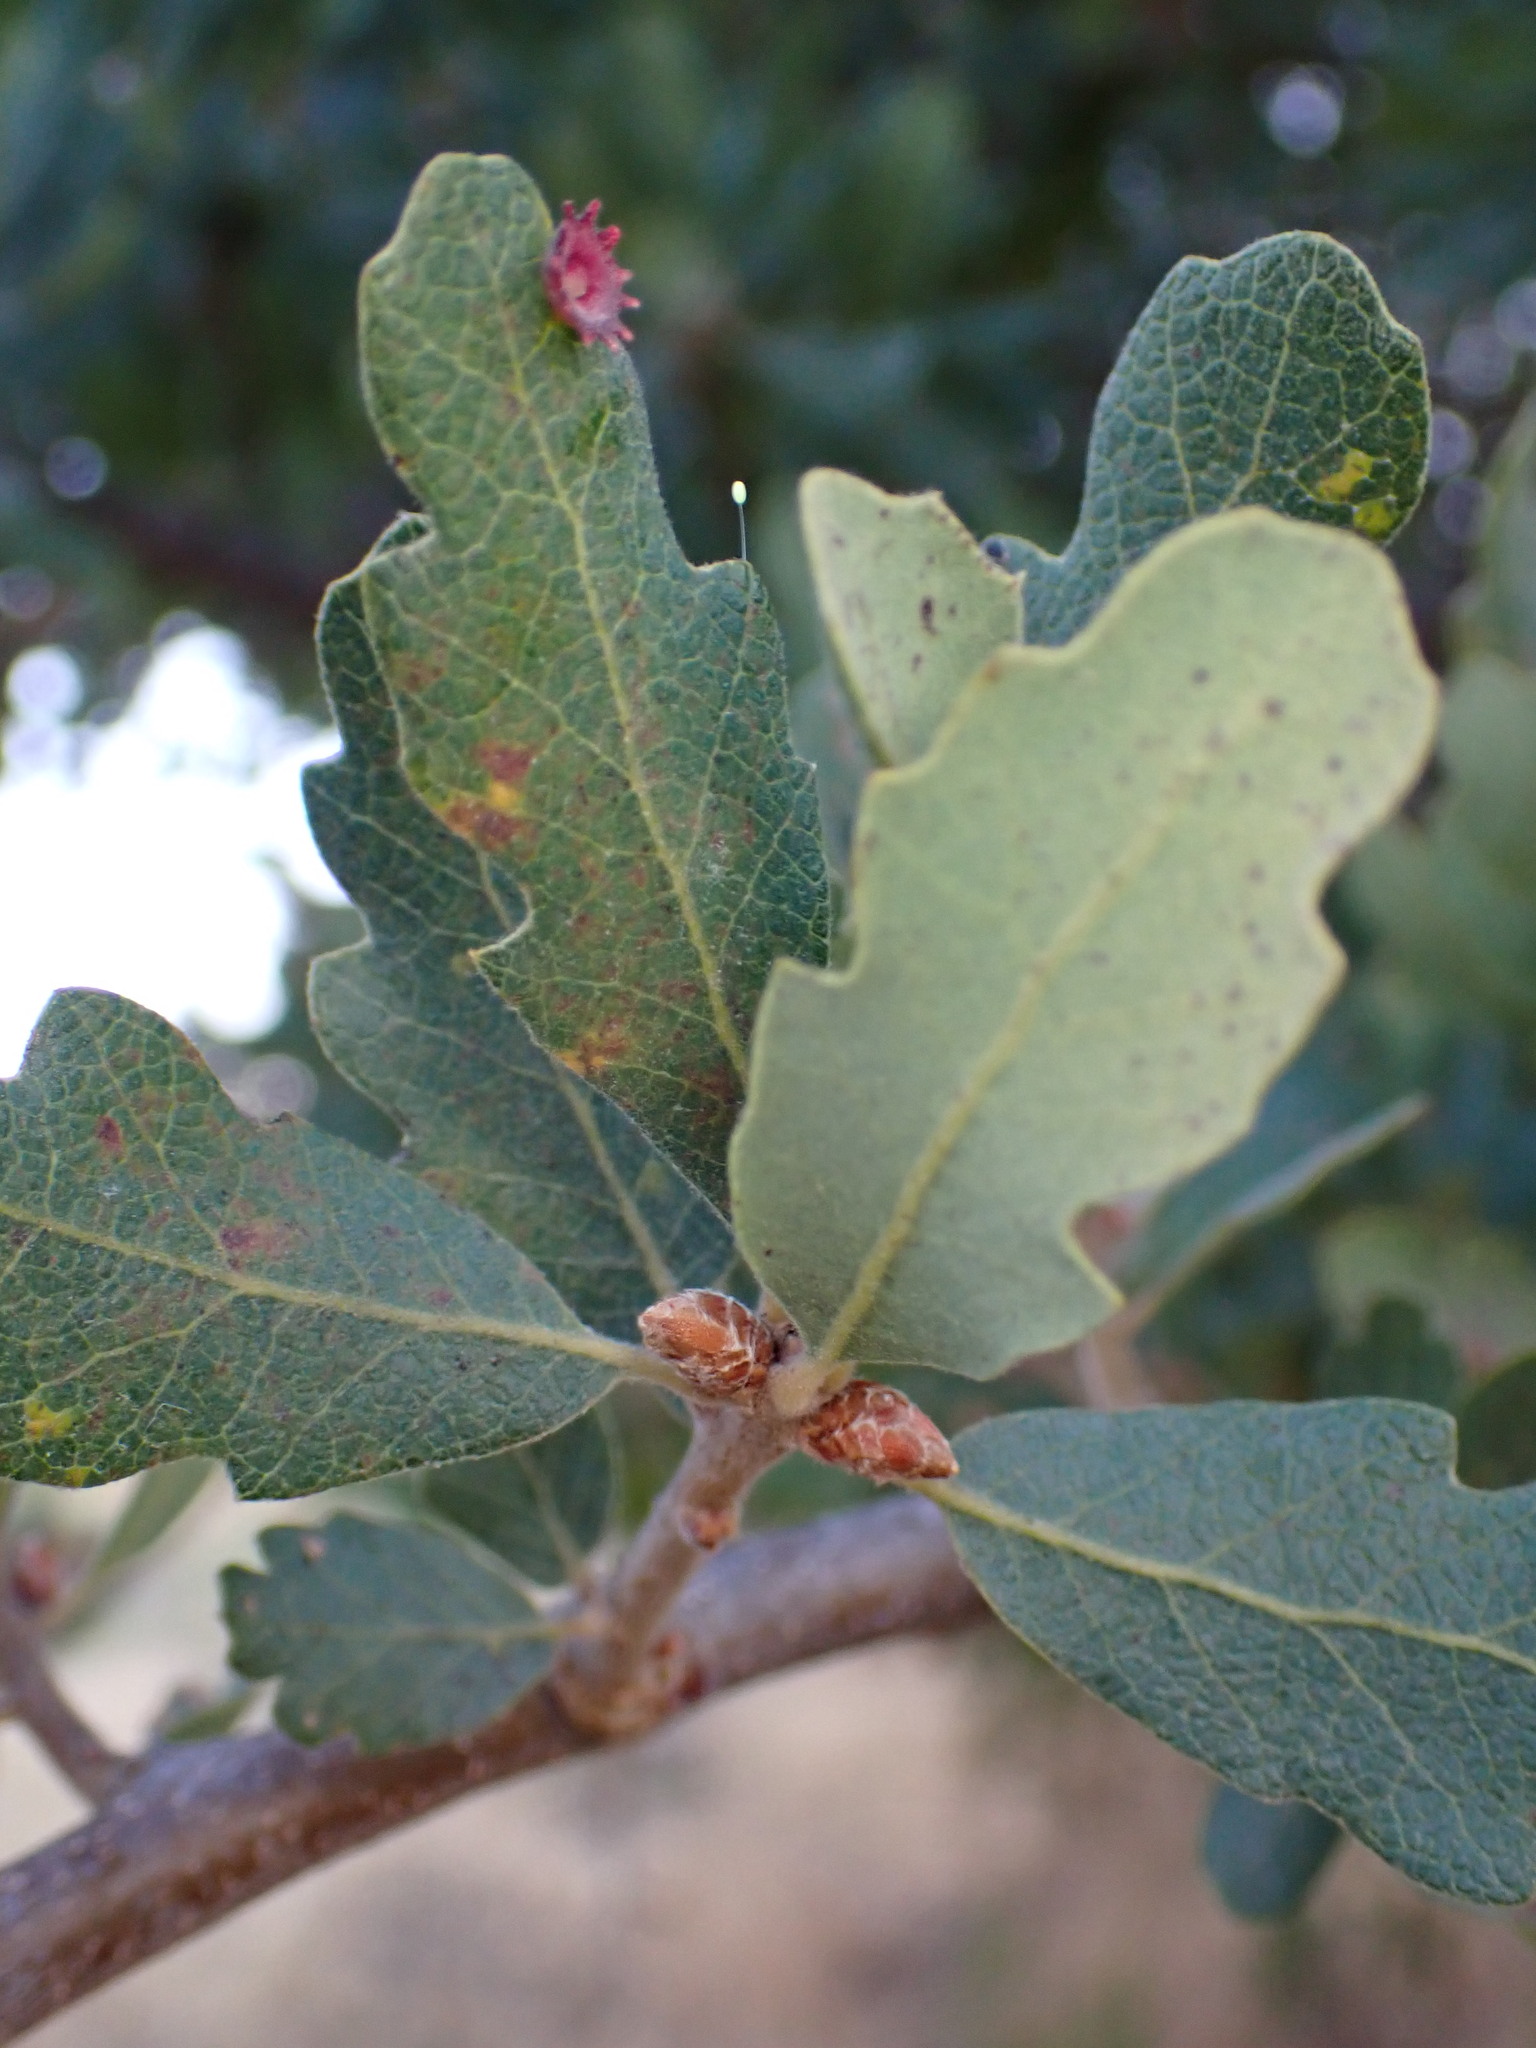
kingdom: Plantae
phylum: Tracheophyta
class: Magnoliopsida
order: Fagales
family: Fagaceae
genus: Quercus
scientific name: Quercus douglasii
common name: Blue oak
